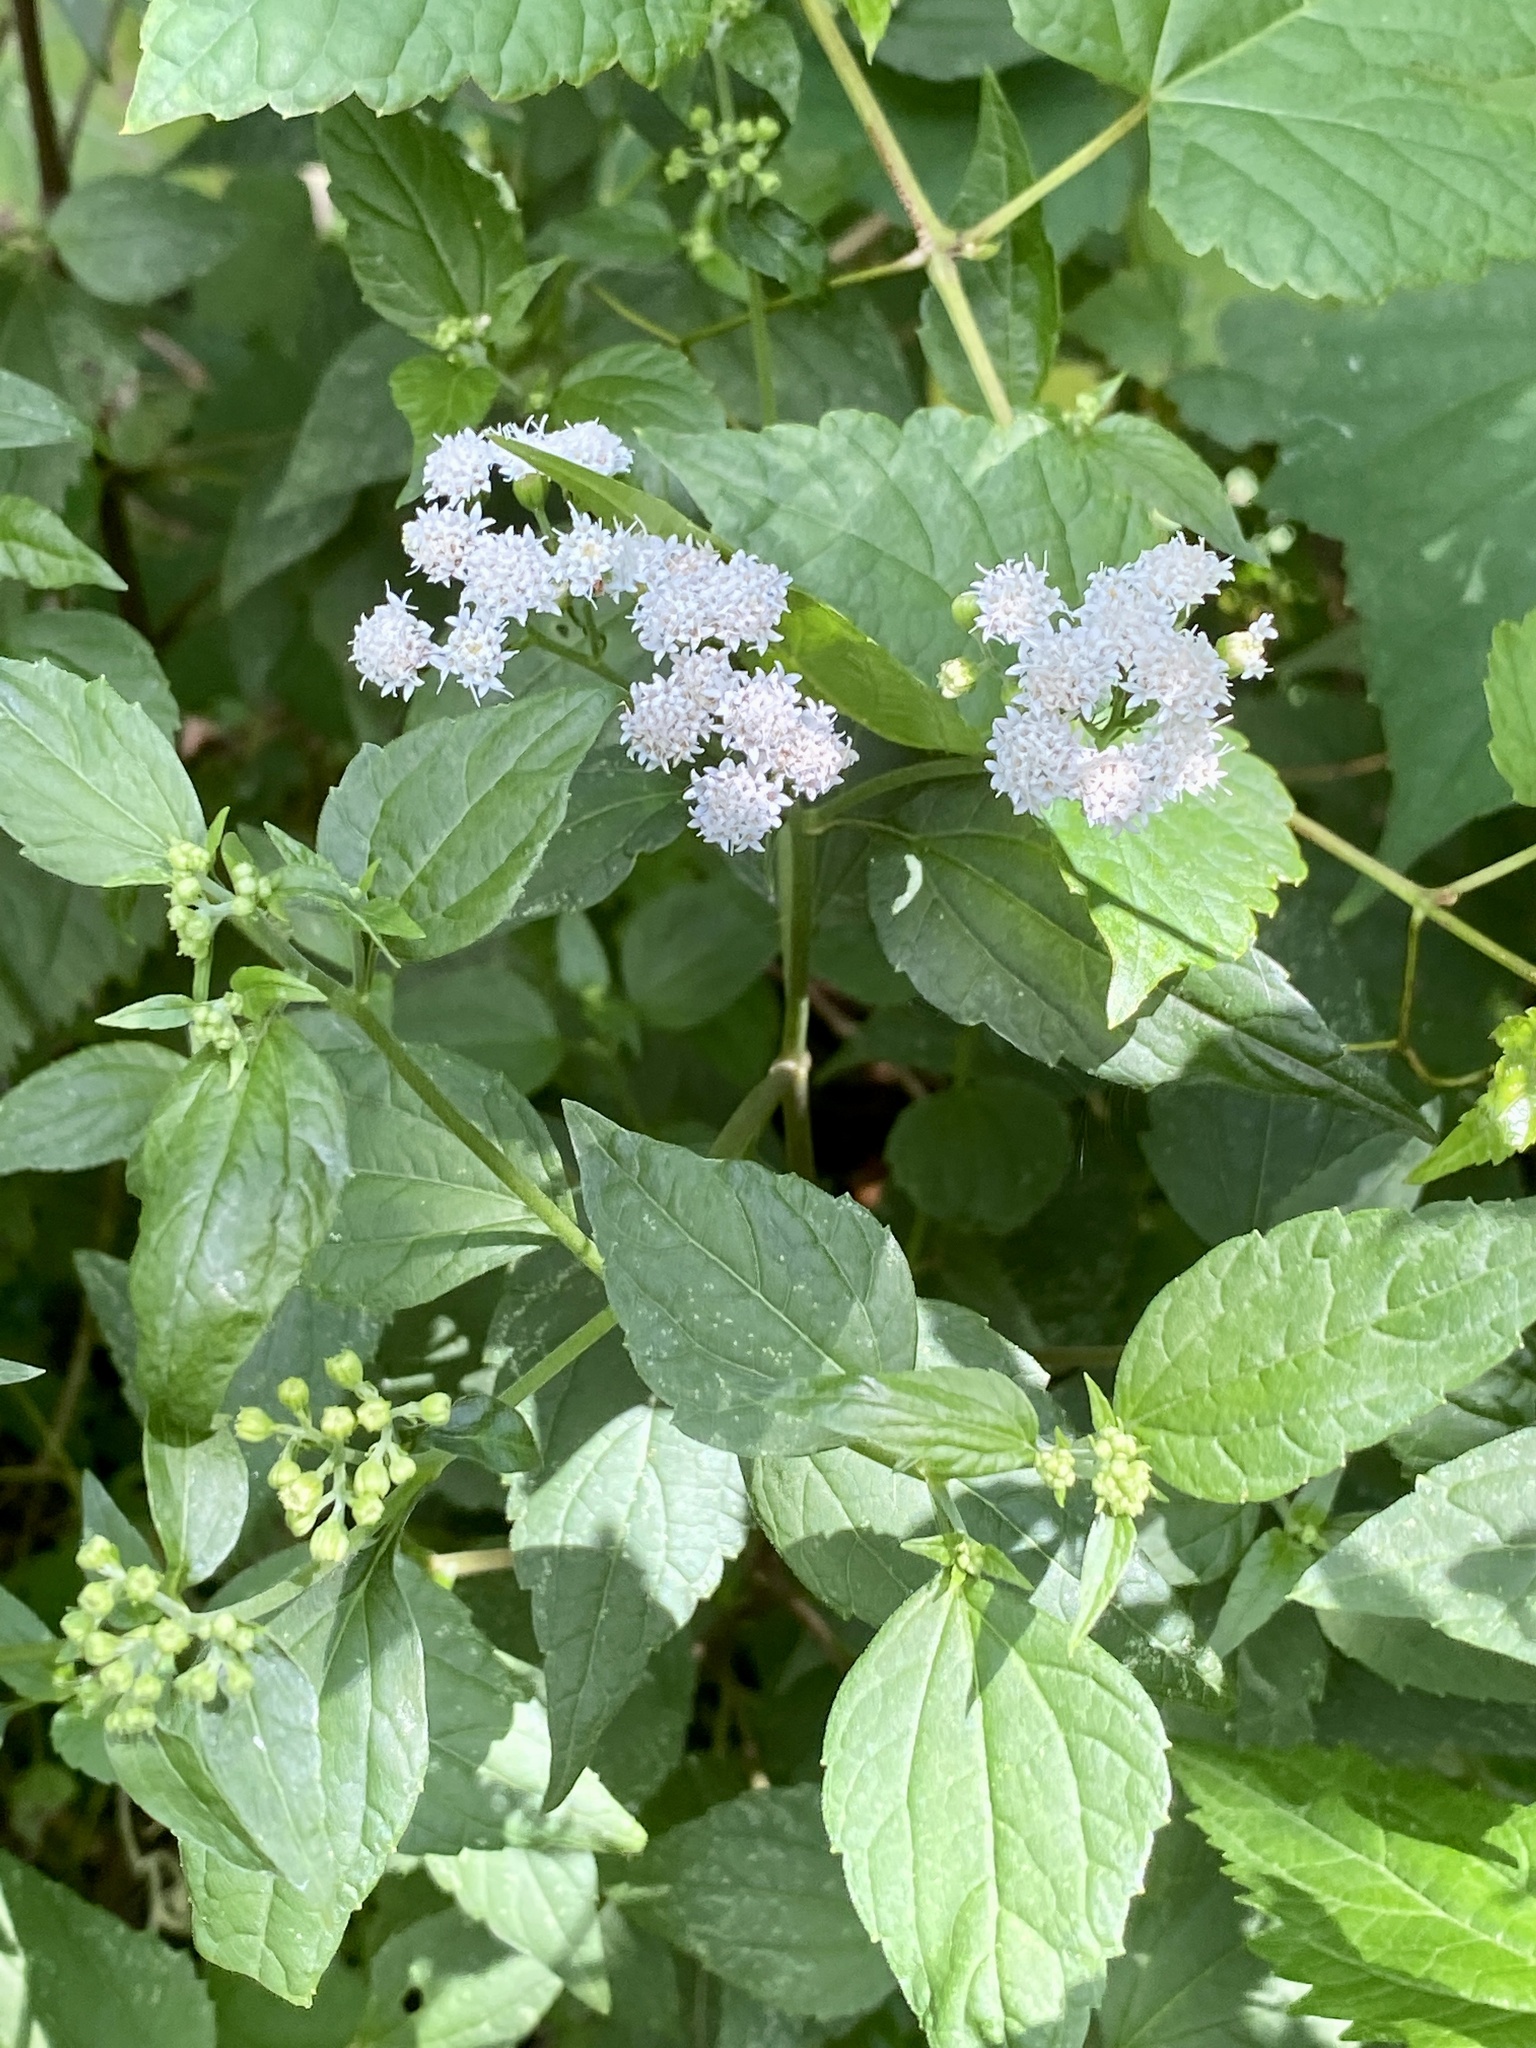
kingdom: Plantae
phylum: Tracheophyta
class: Magnoliopsida
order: Asterales
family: Asteraceae
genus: Ageratina
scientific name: Ageratina altissima
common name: White snakeroot
